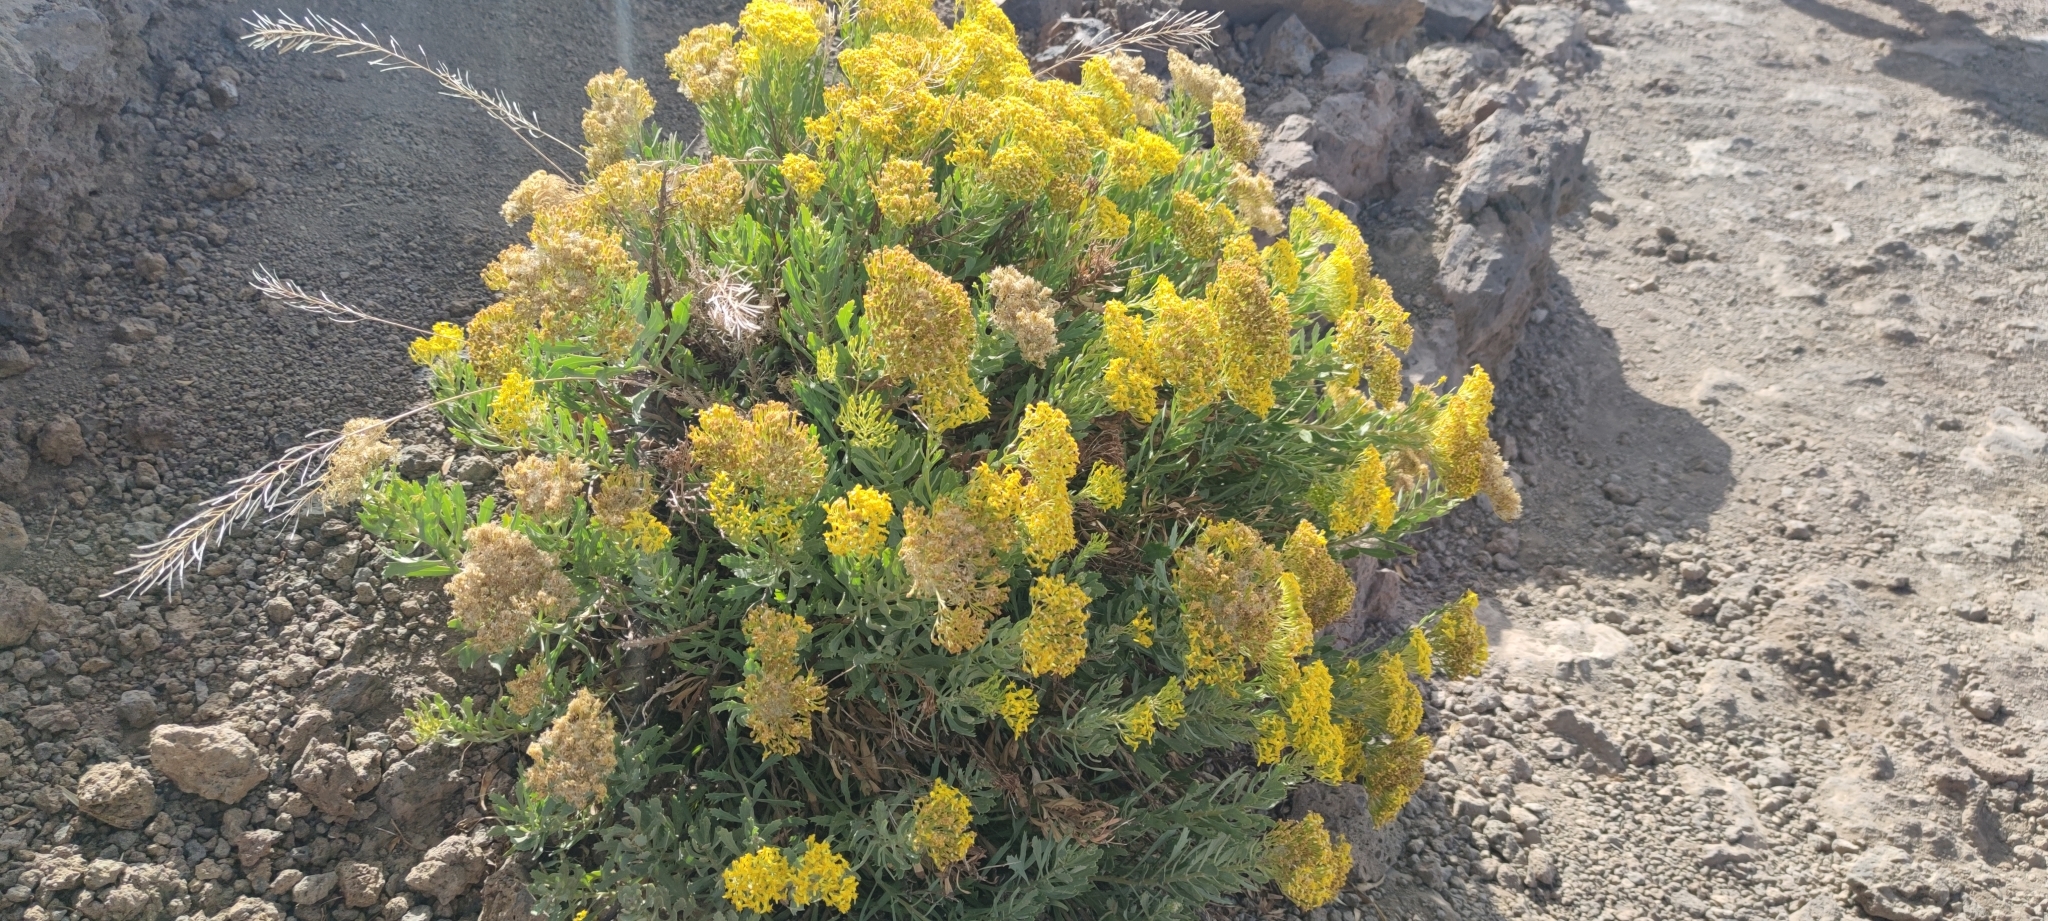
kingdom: Plantae
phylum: Tracheophyta
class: Magnoliopsida
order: Asterales
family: Asteraceae
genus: Bethencourtia
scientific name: Bethencourtia palmensis
